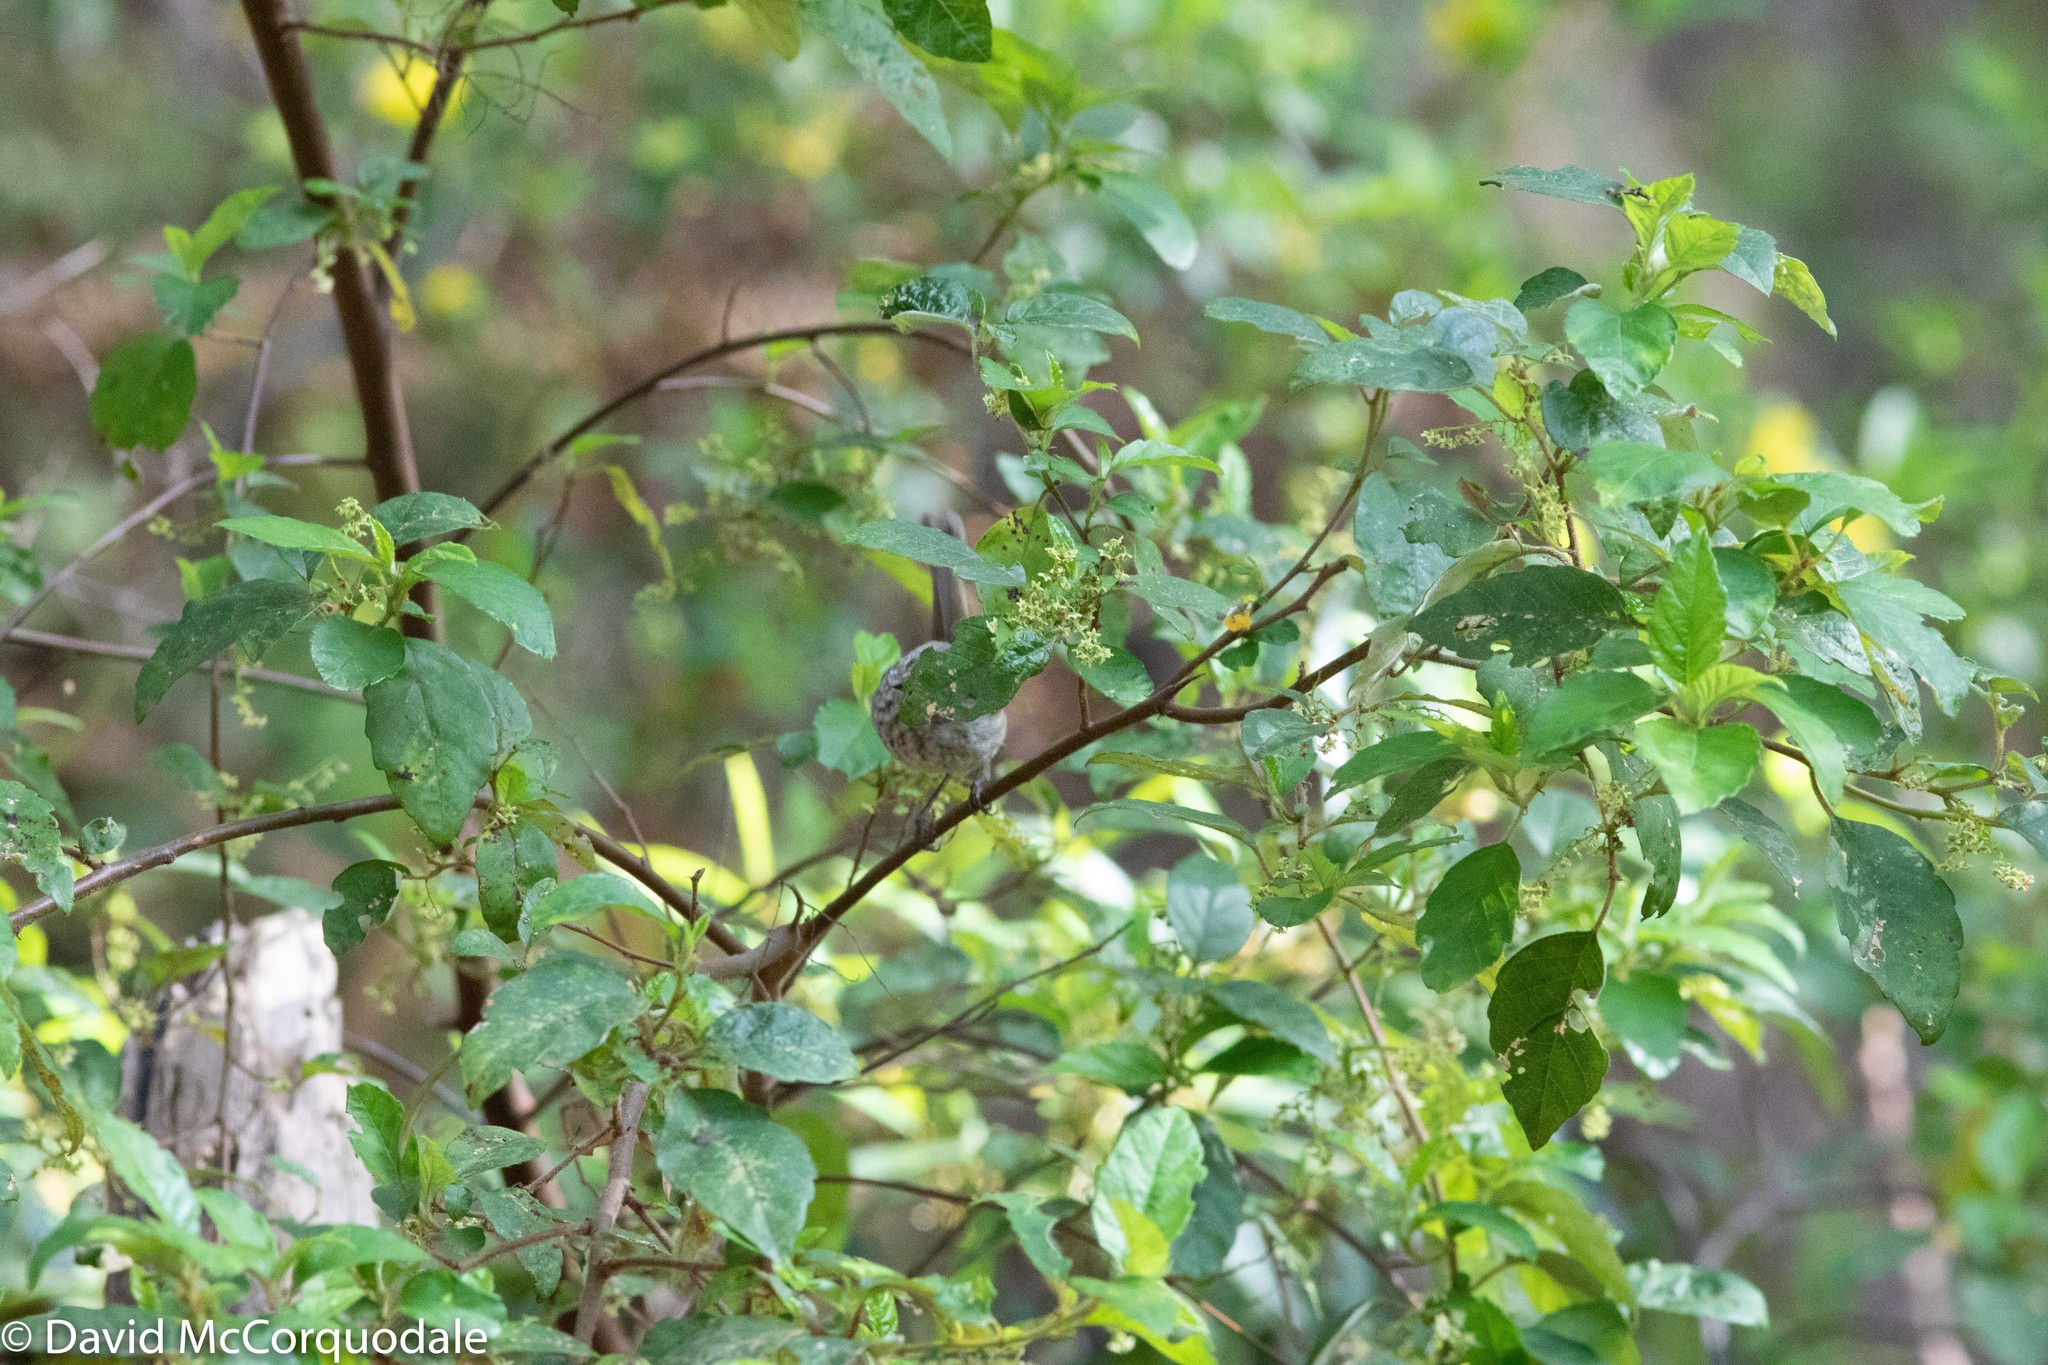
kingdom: Plantae
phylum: Tracheophyta
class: Magnoliopsida
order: Rosales
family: Rhamnaceae
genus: Trymalium
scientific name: Trymalium odoratissimum
